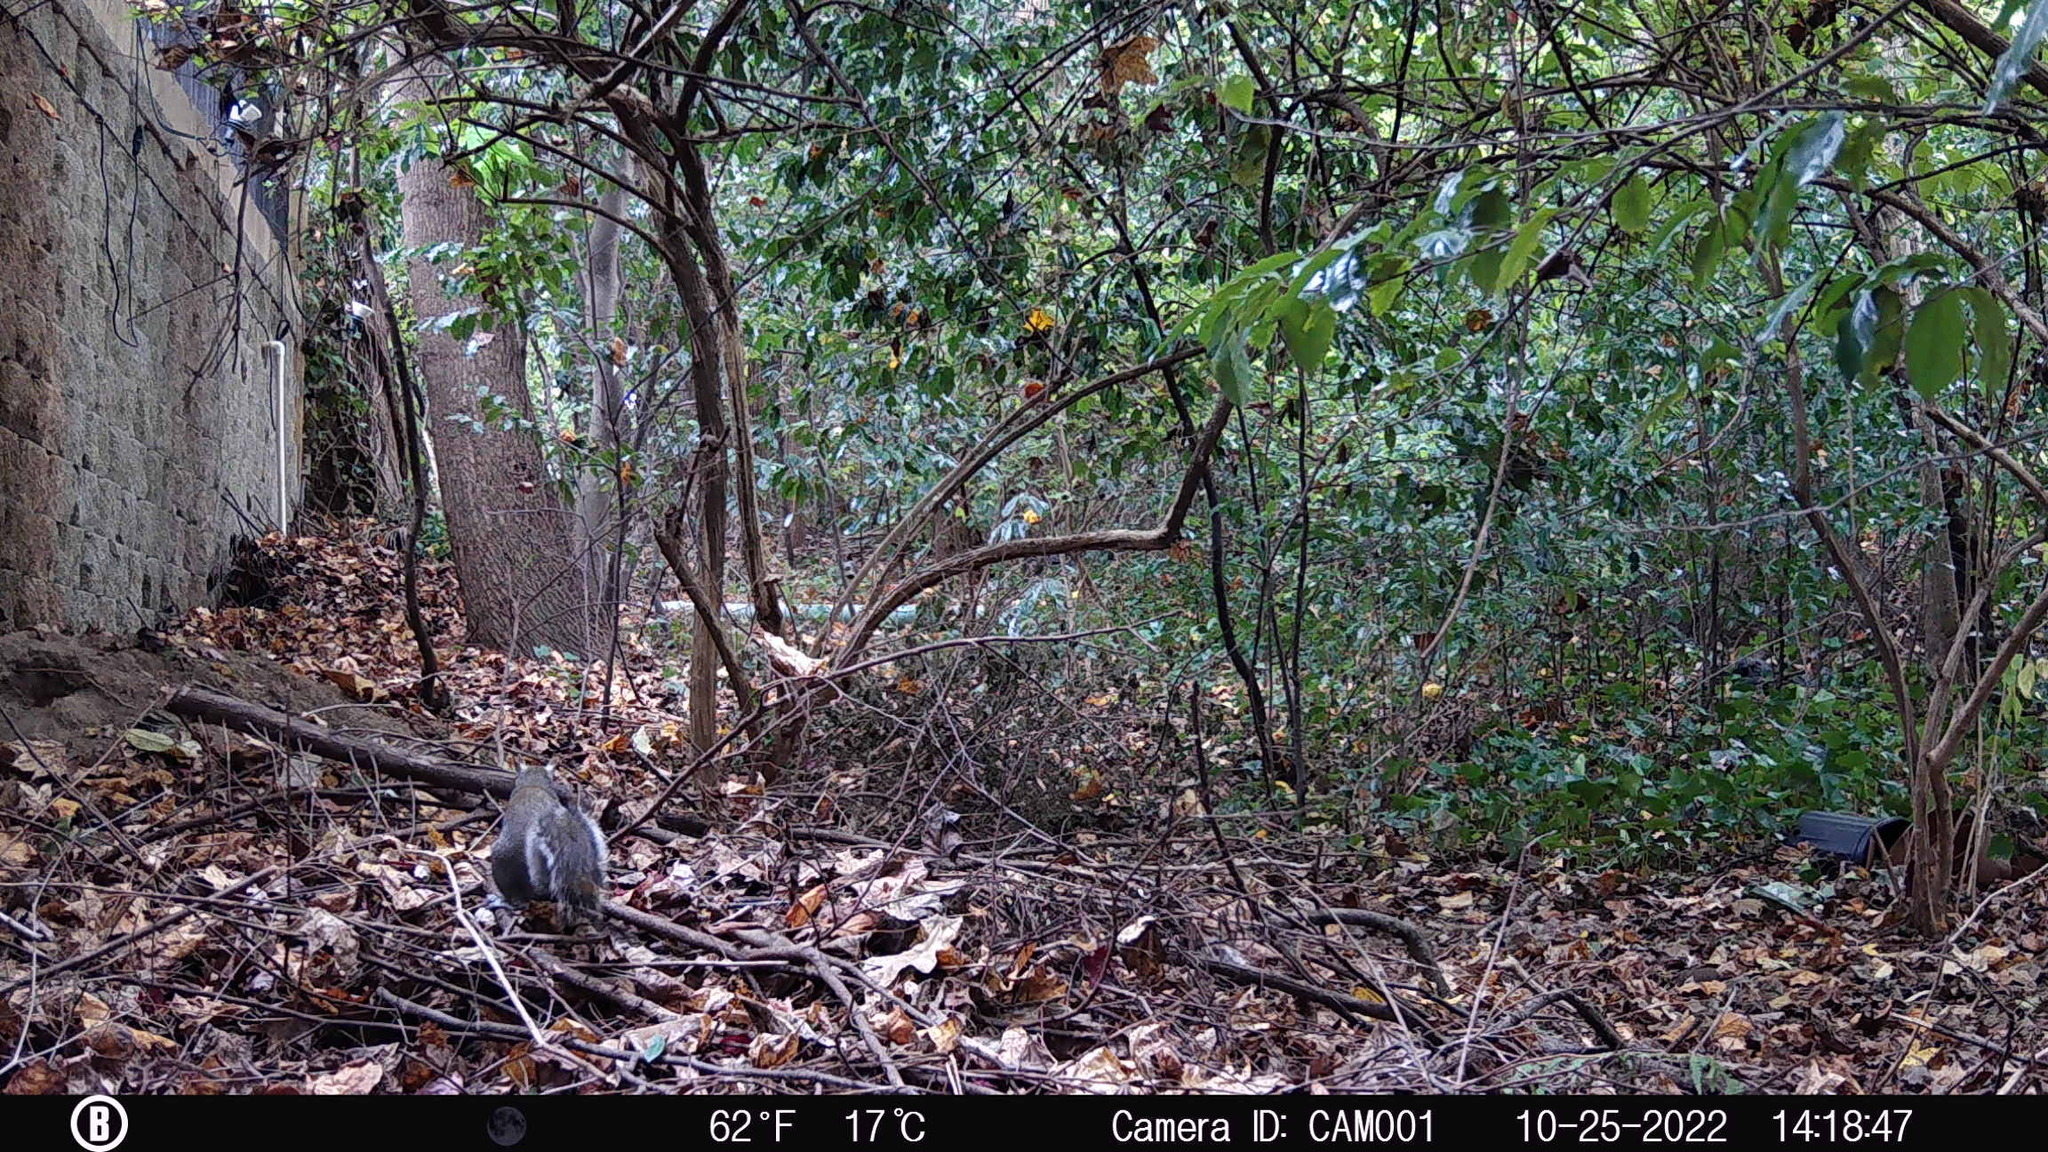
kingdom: Animalia
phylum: Chordata
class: Mammalia
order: Rodentia
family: Sciuridae
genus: Sciurus
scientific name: Sciurus carolinensis
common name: Eastern gray squirrel
